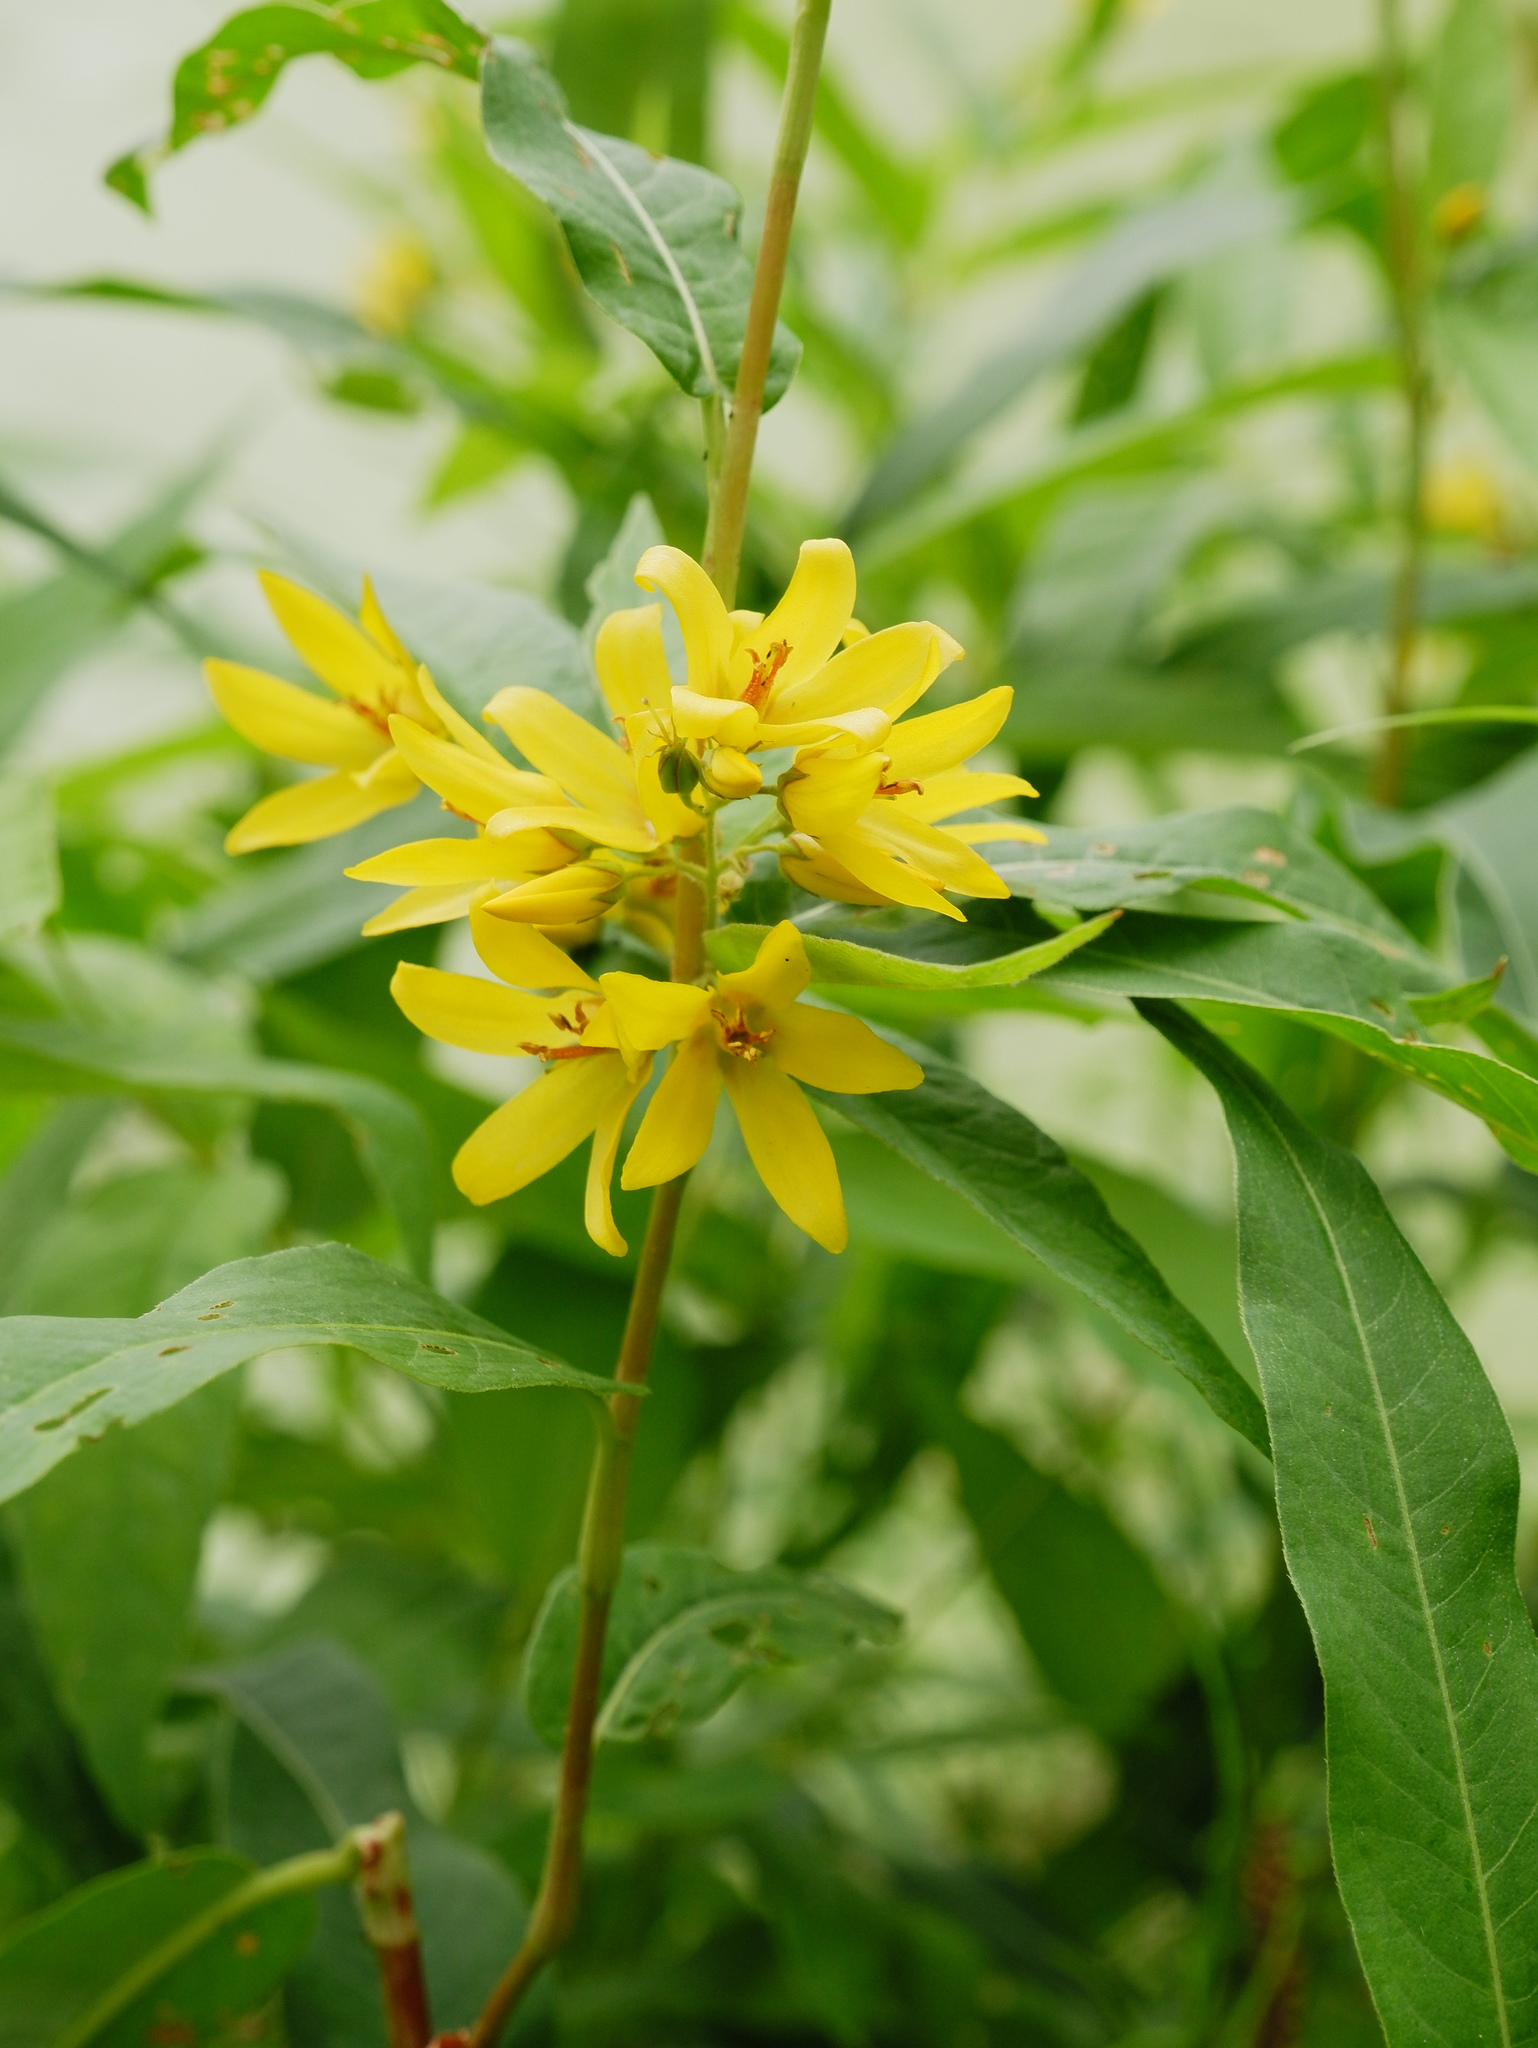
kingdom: Plantae
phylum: Tracheophyta
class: Magnoliopsida
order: Ericales
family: Primulaceae
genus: Lysimachia
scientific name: Lysimachia vulgaris
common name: Yellow loosestrife
